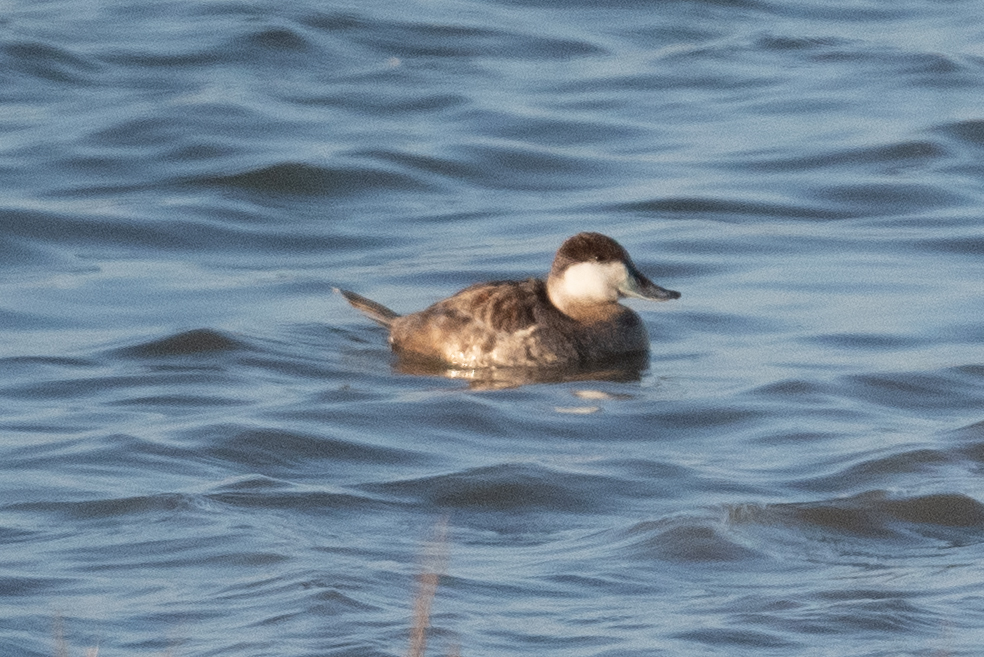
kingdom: Animalia
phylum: Chordata
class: Aves
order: Anseriformes
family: Anatidae
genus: Oxyura
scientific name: Oxyura jamaicensis
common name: Ruddy duck
